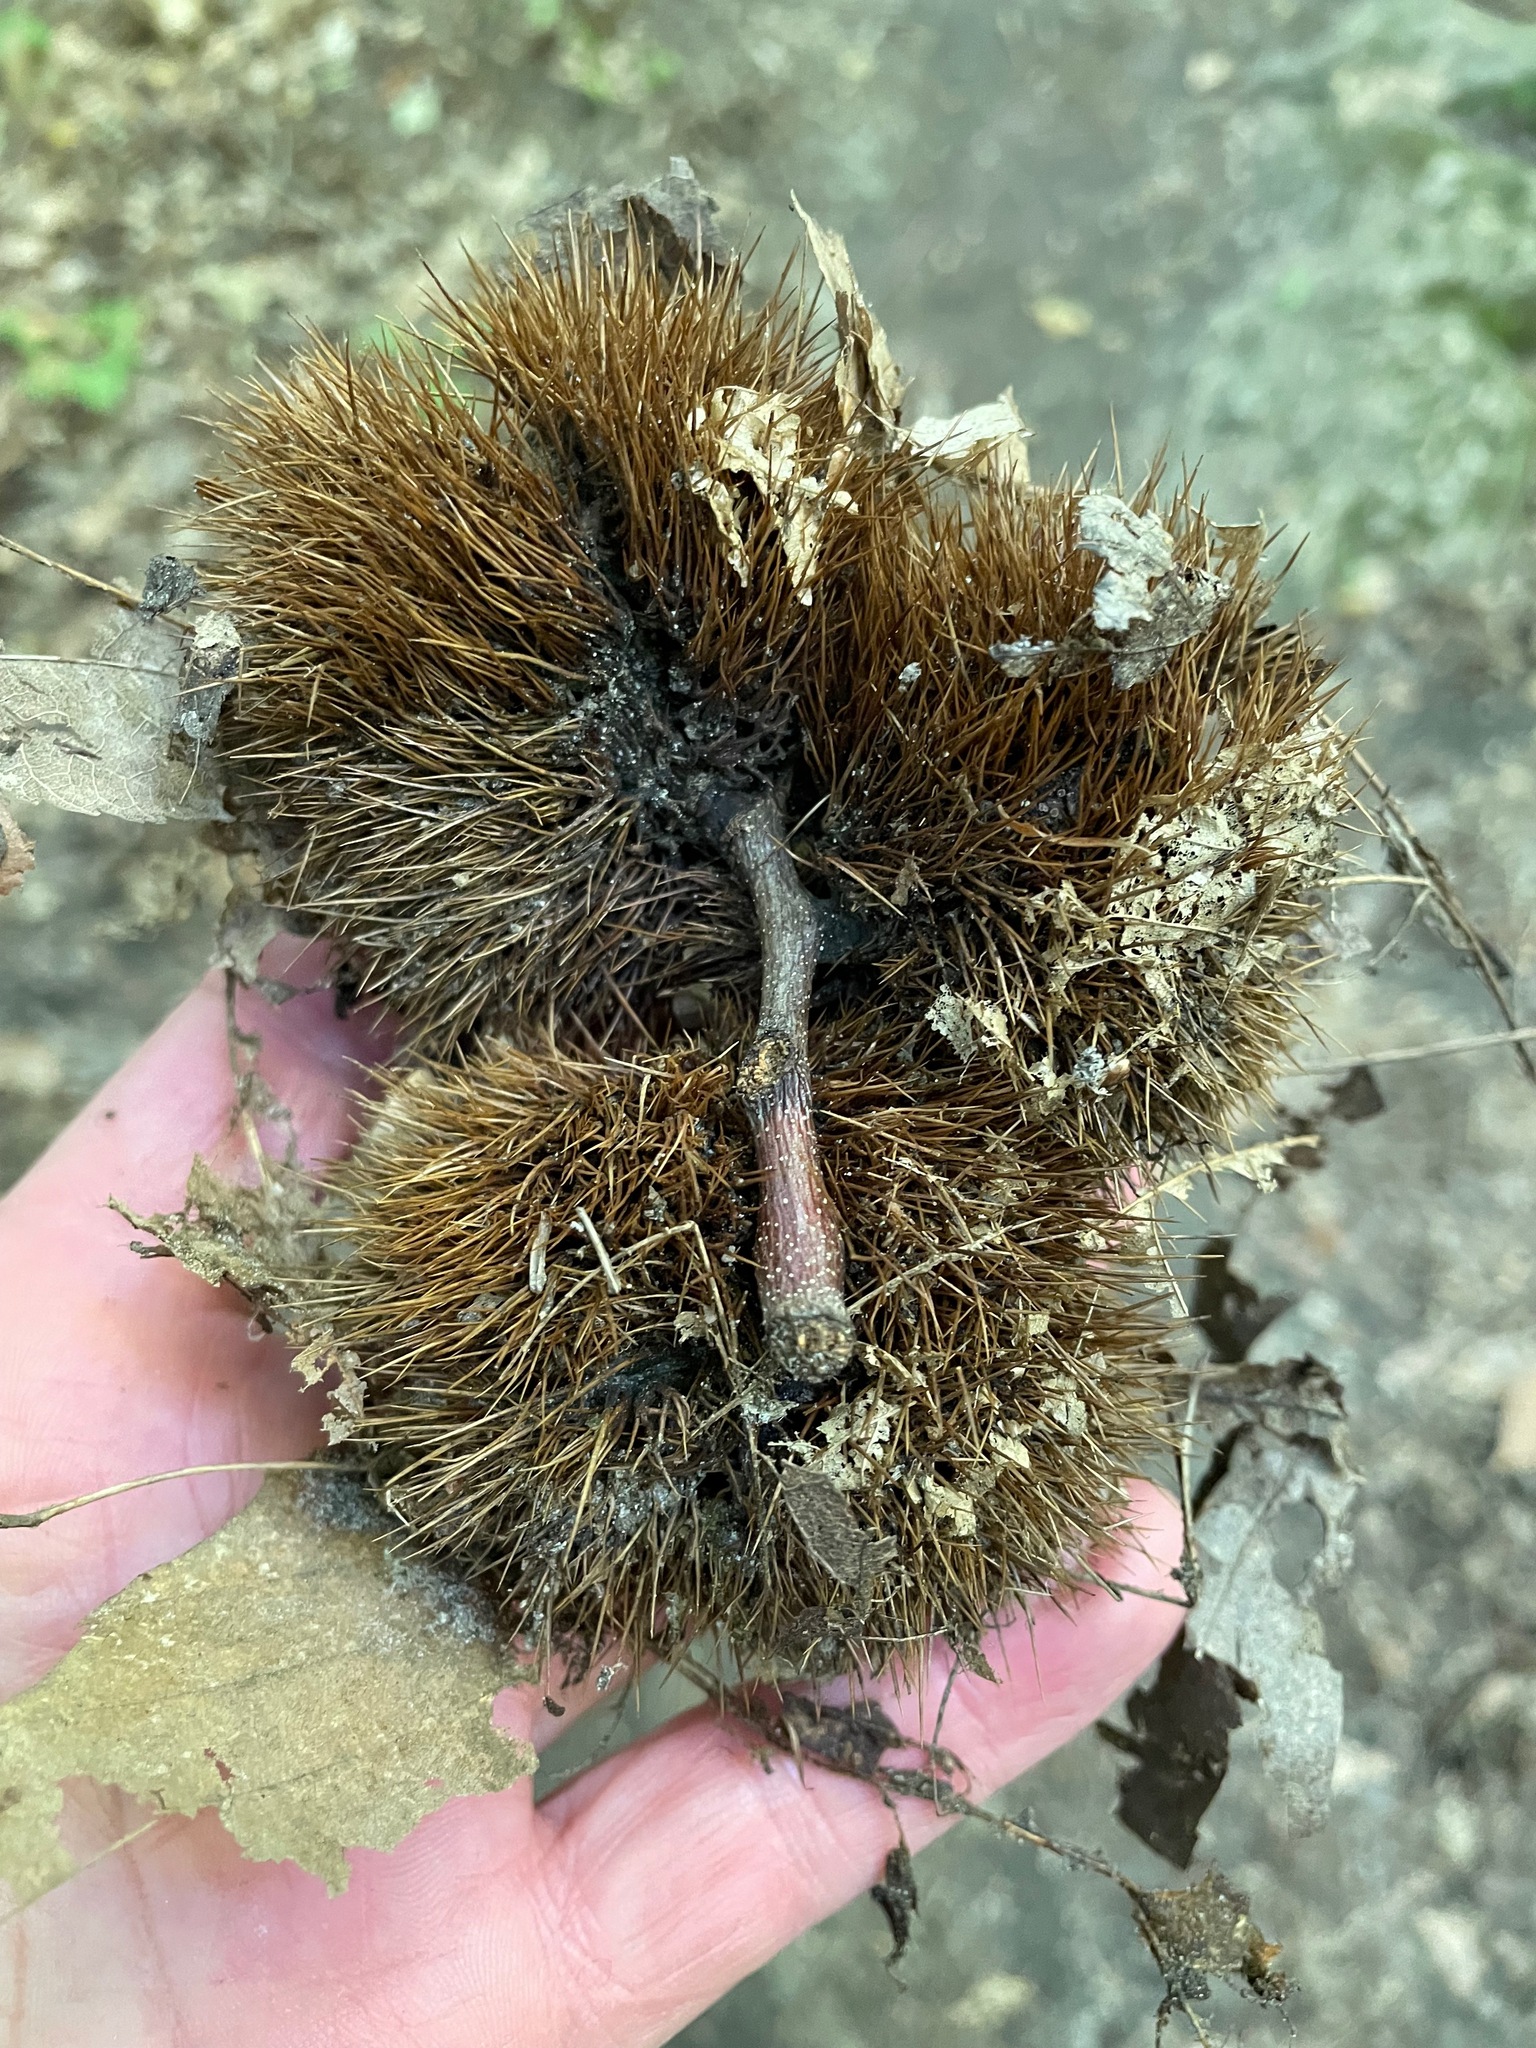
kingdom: Plantae
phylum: Tracheophyta
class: Magnoliopsida
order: Fagales
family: Fagaceae
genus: Castanea
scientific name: Castanea dentata
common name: American chestnut
